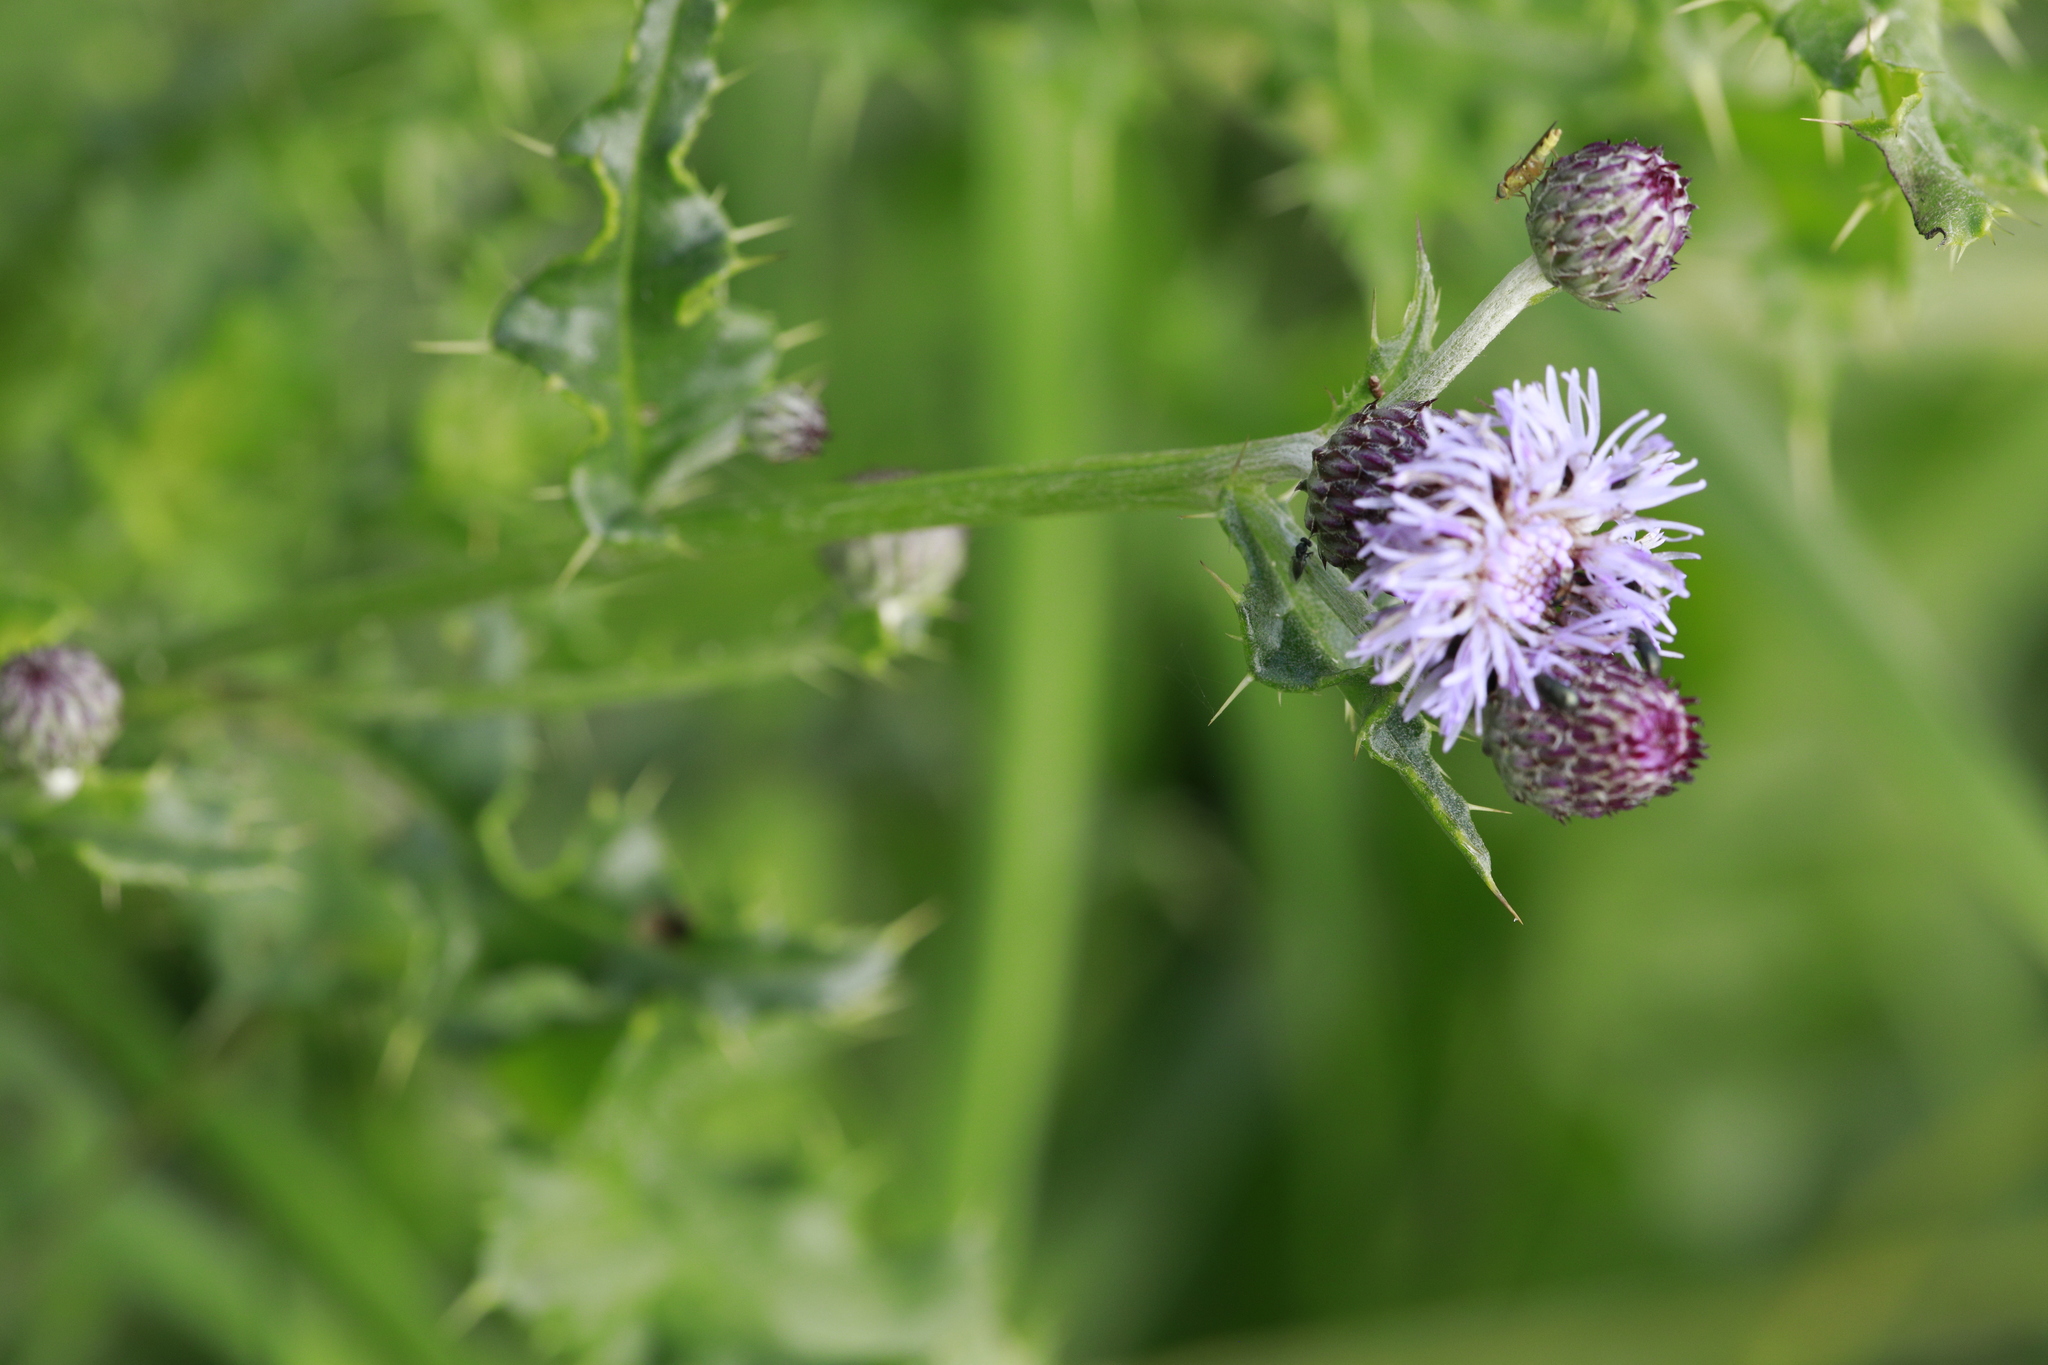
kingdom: Plantae
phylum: Tracheophyta
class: Magnoliopsida
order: Asterales
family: Asteraceae
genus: Cirsium
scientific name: Cirsium arvense
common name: Creeping thistle
